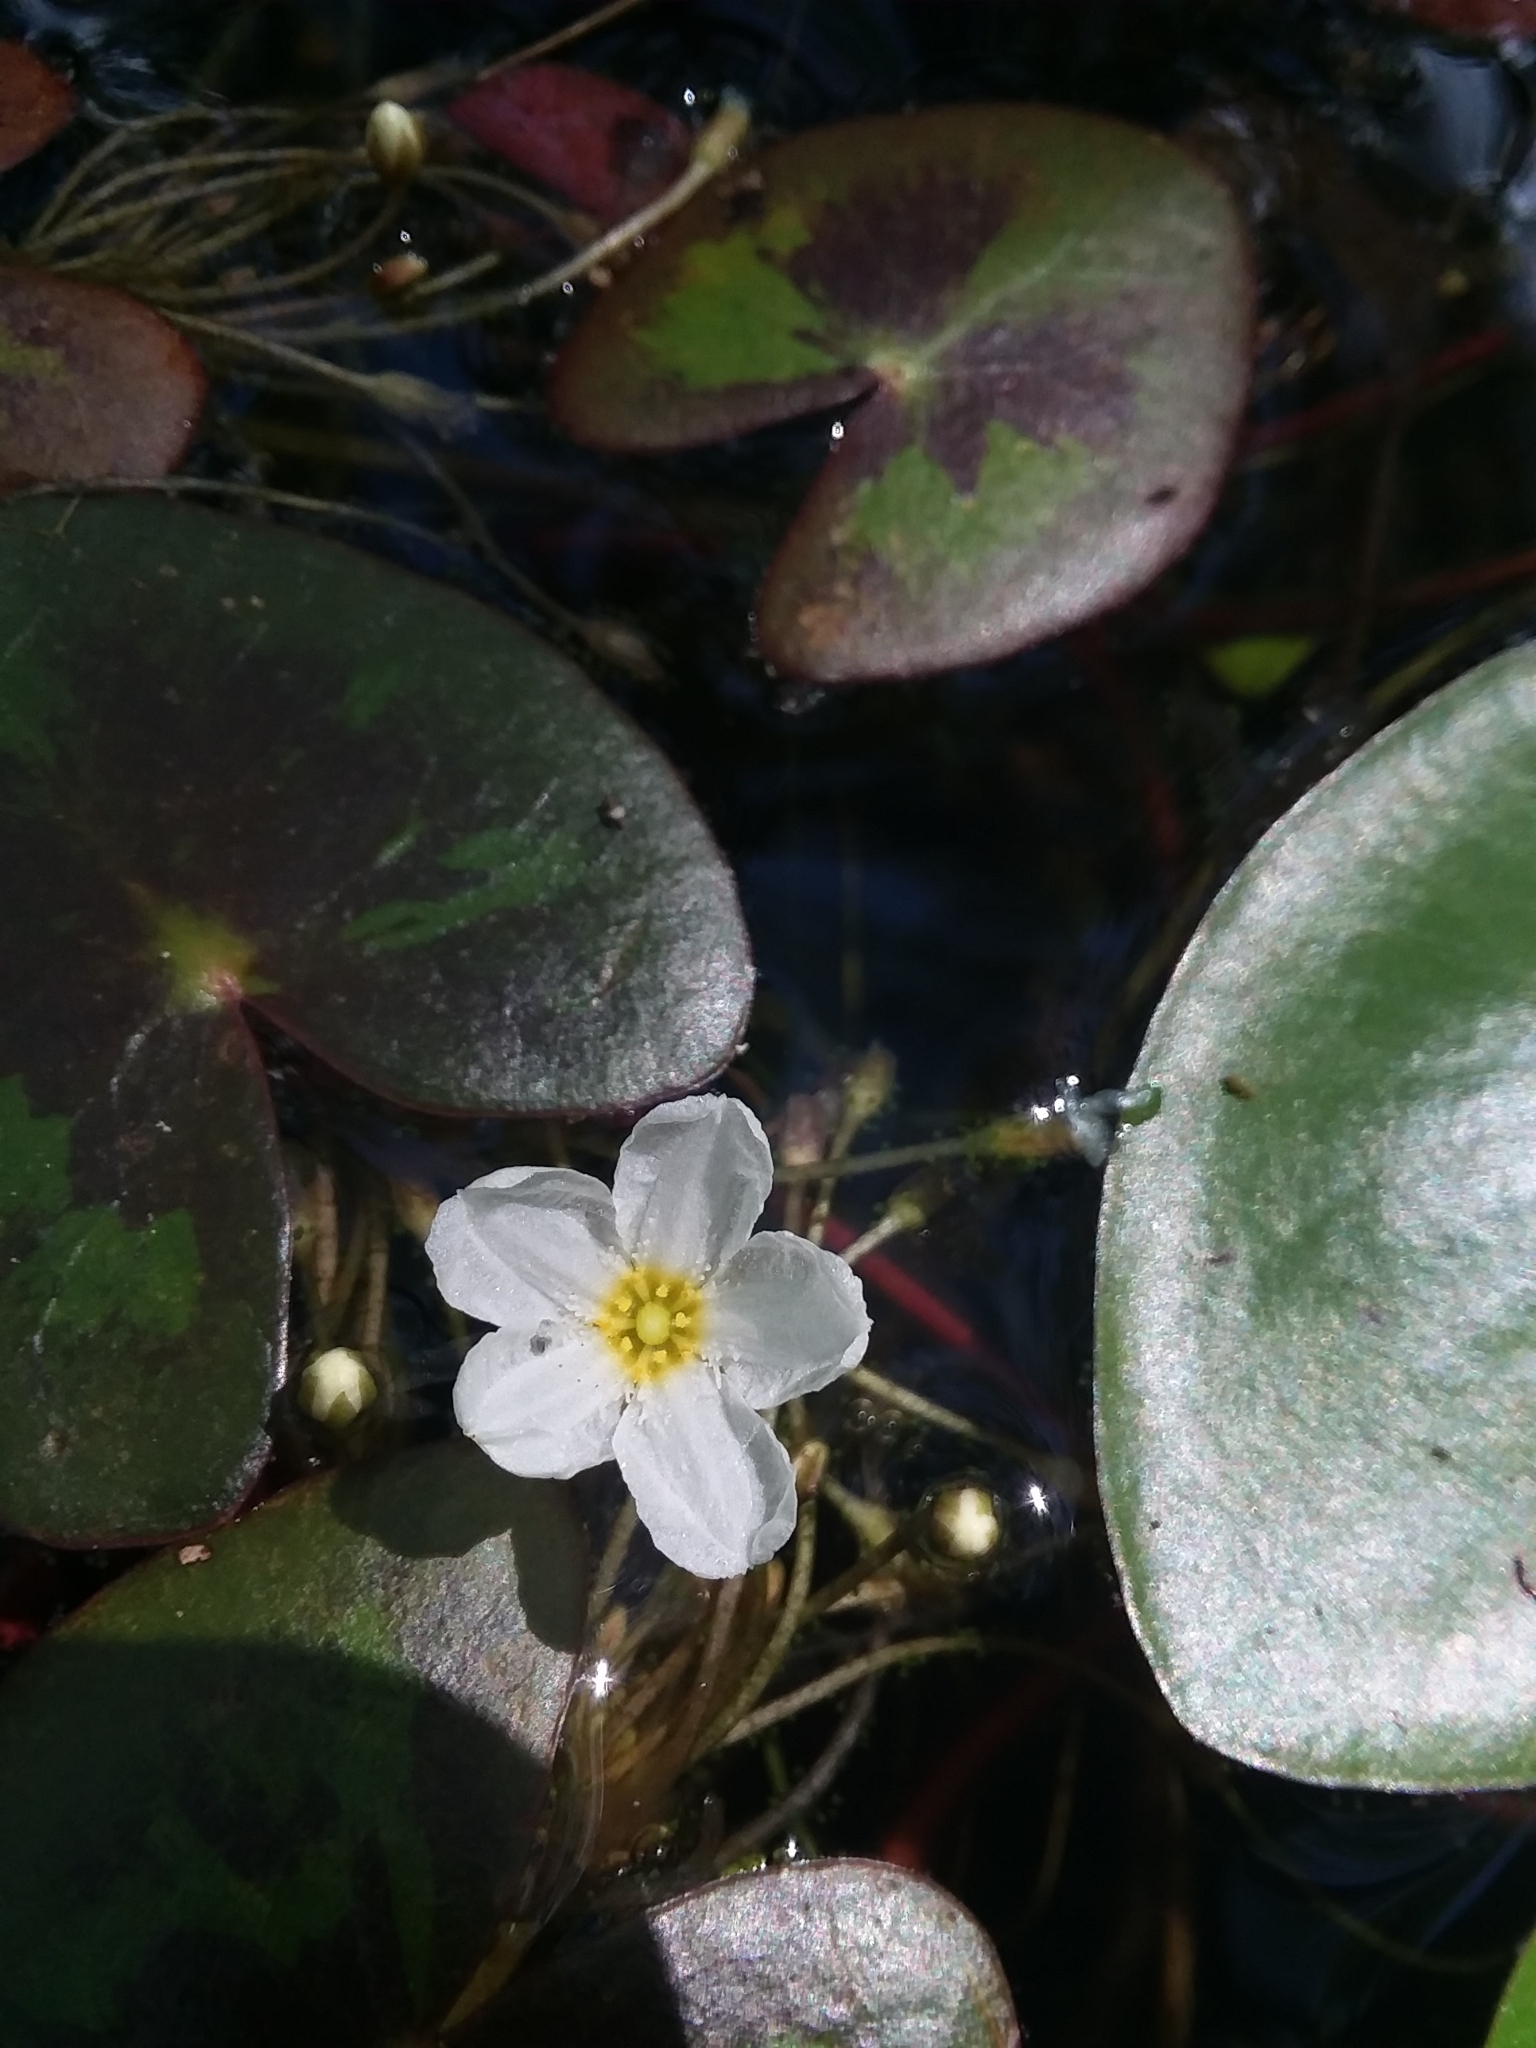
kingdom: Plantae
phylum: Tracheophyta
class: Magnoliopsida
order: Asterales
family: Menyanthaceae
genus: Nymphoides
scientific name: Nymphoides cordata
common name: Eight-angled floatingheart
